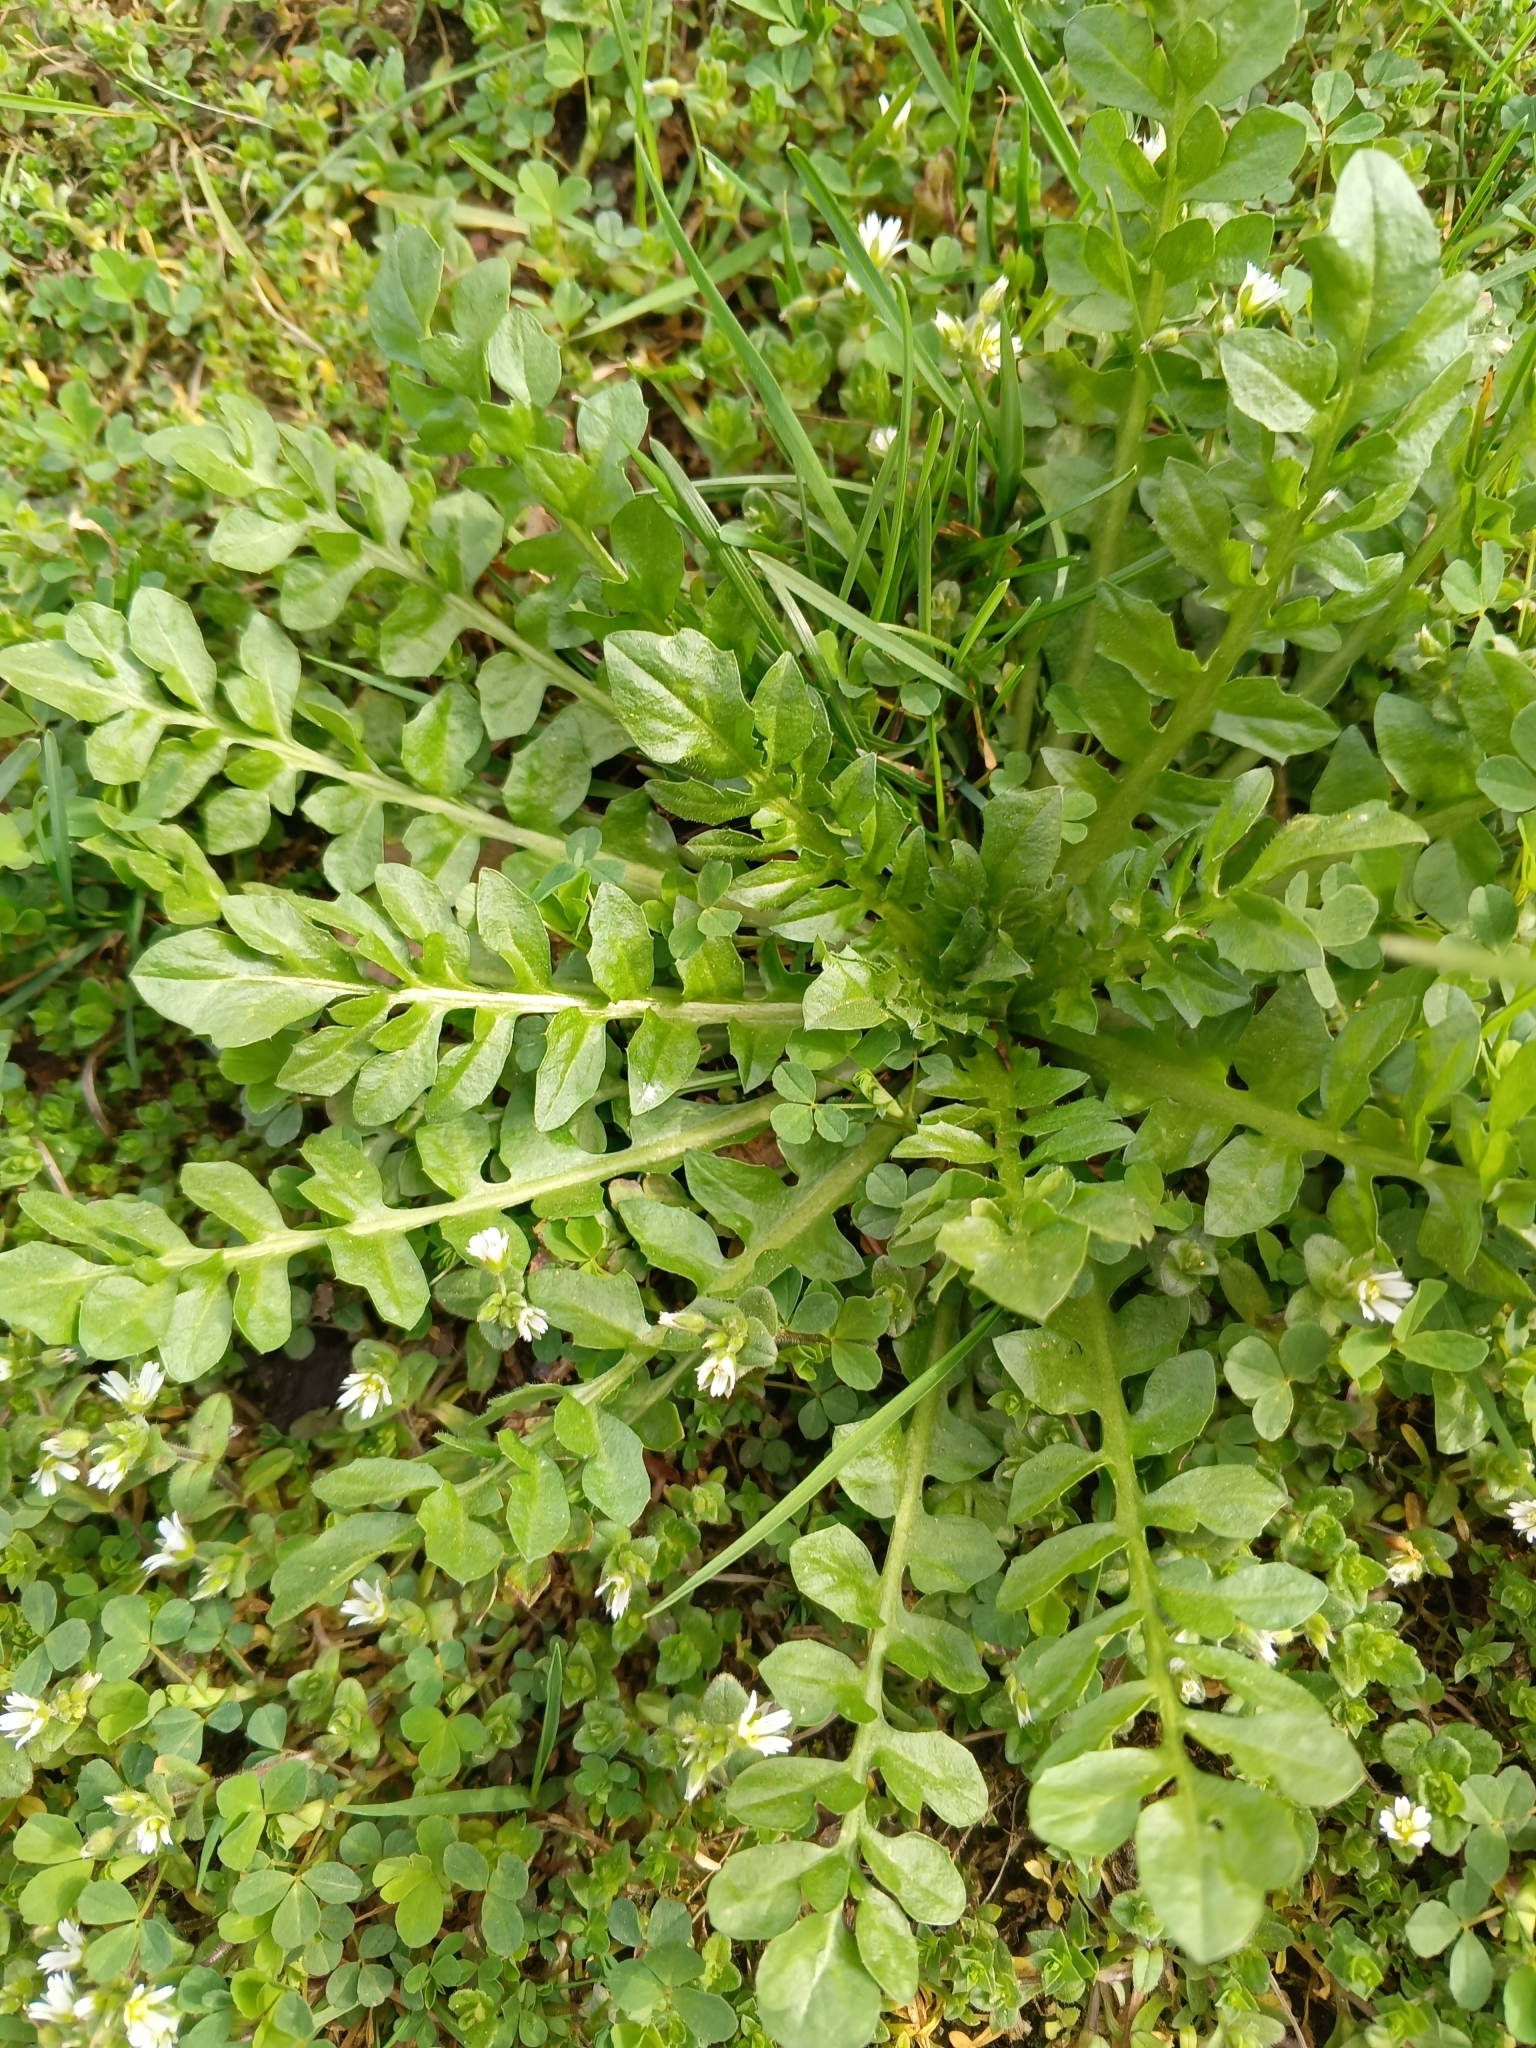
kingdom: Plantae
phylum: Tracheophyta
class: Magnoliopsida
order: Brassicales
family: Brassicaceae
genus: Capsella
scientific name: Capsella bursa-pastoris
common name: Shepherd's purse
